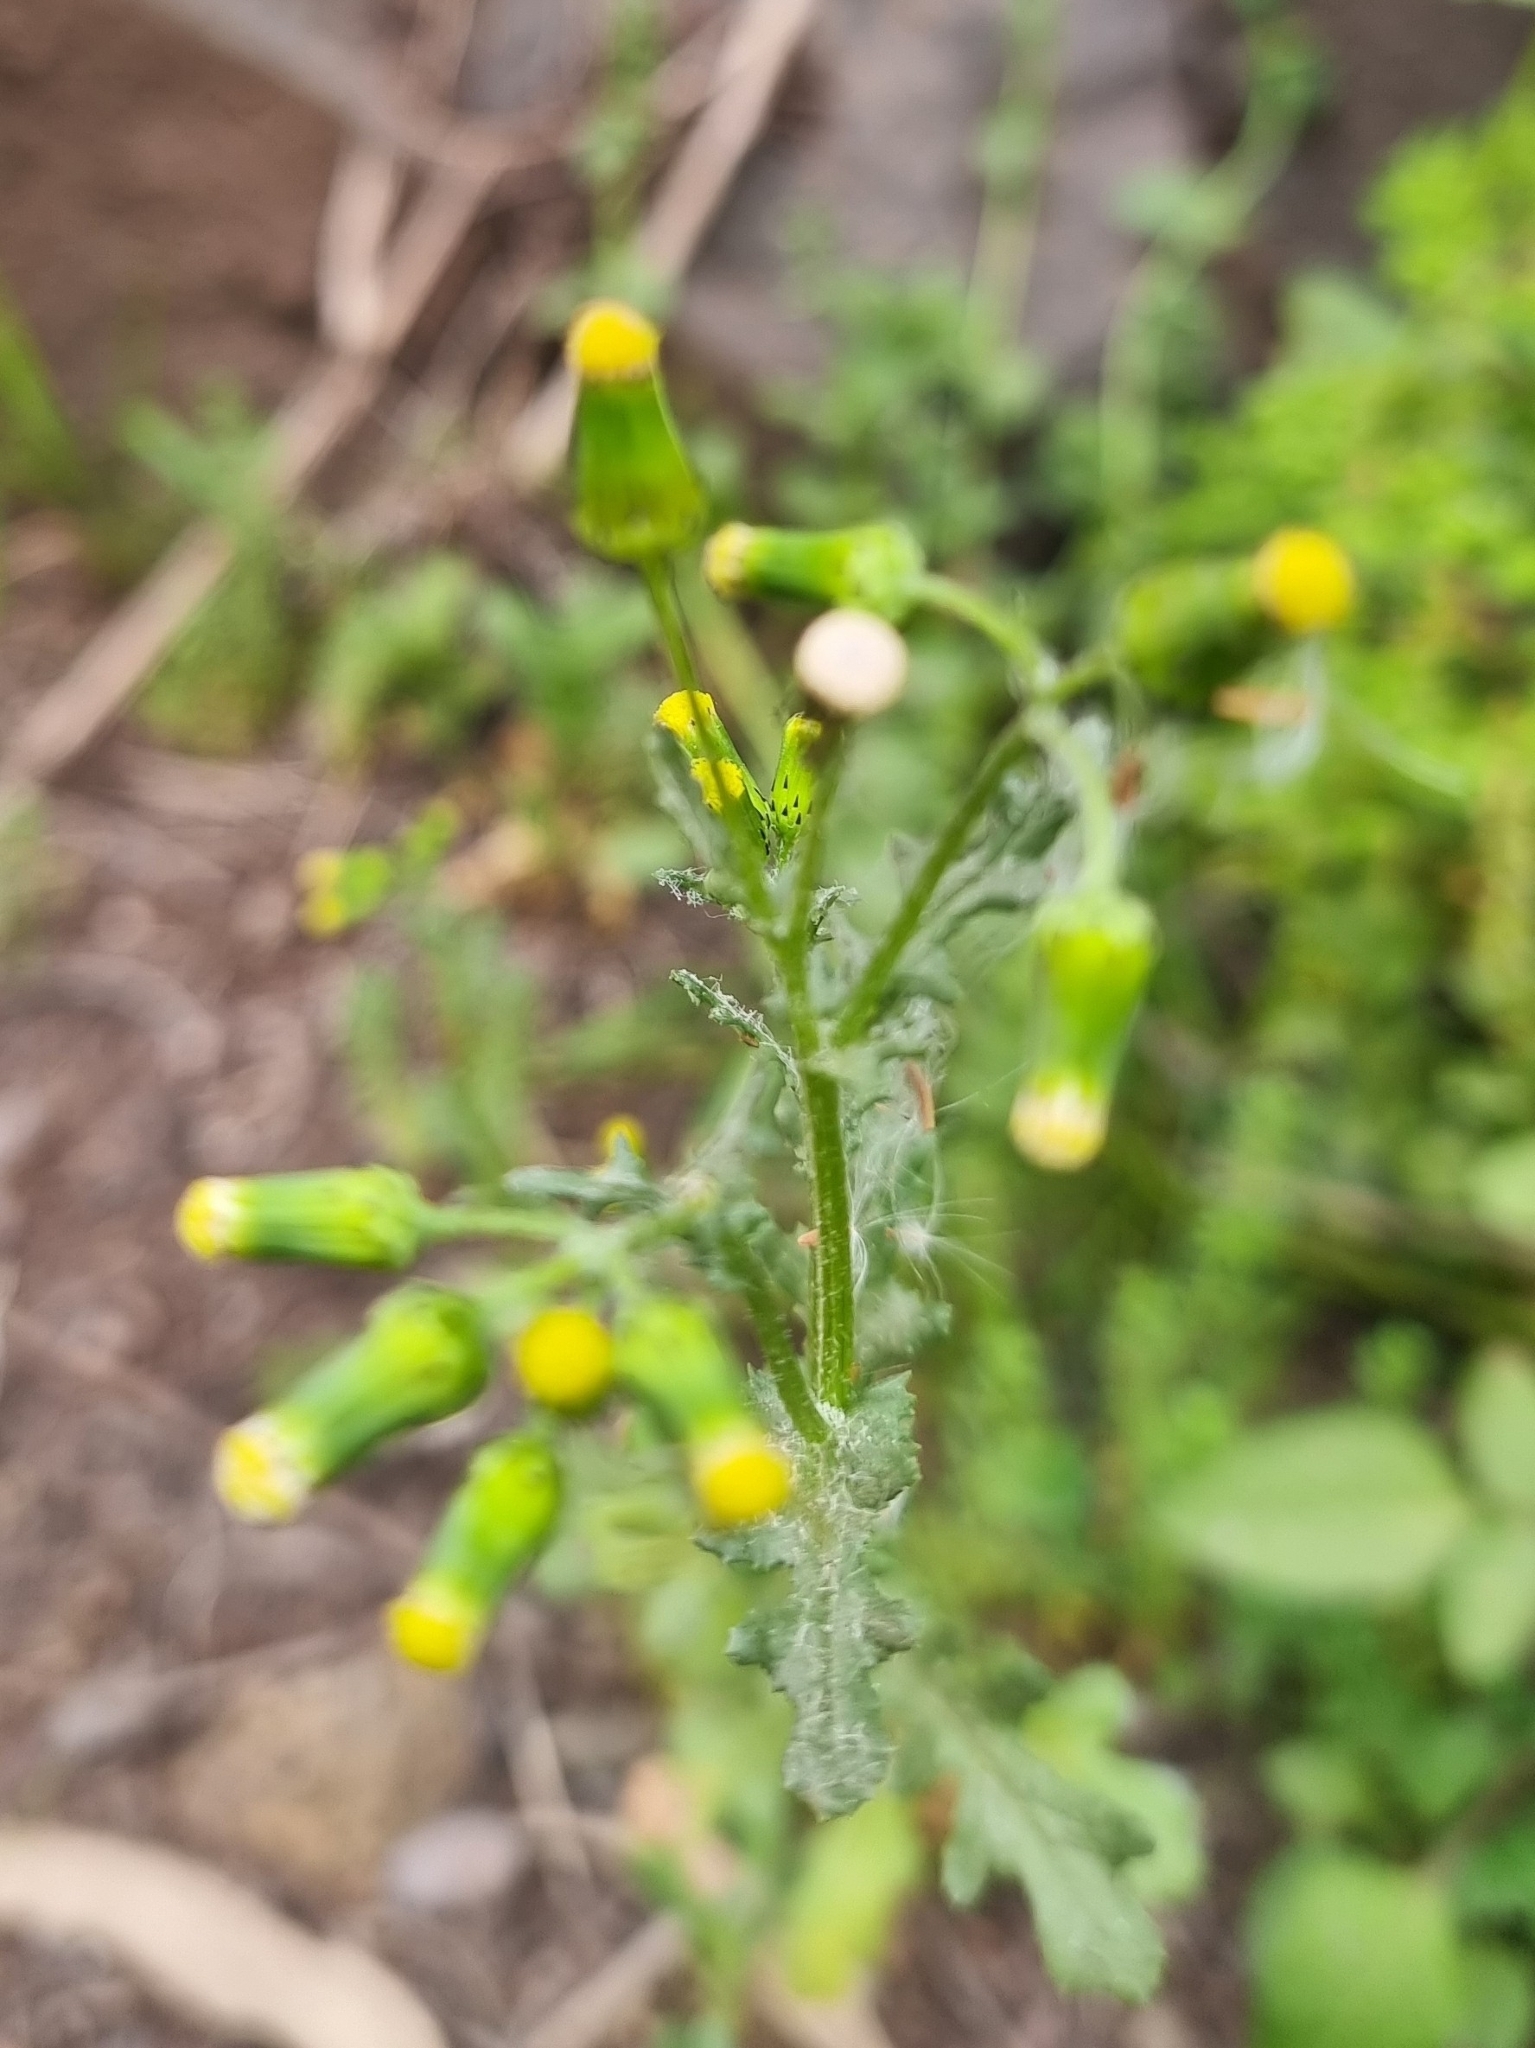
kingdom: Plantae
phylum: Tracheophyta
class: Magnoliopsida
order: Asterales
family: Asteraceae
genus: Senecio
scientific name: Senecio vulgaris
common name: Old-man-in-the-spring
